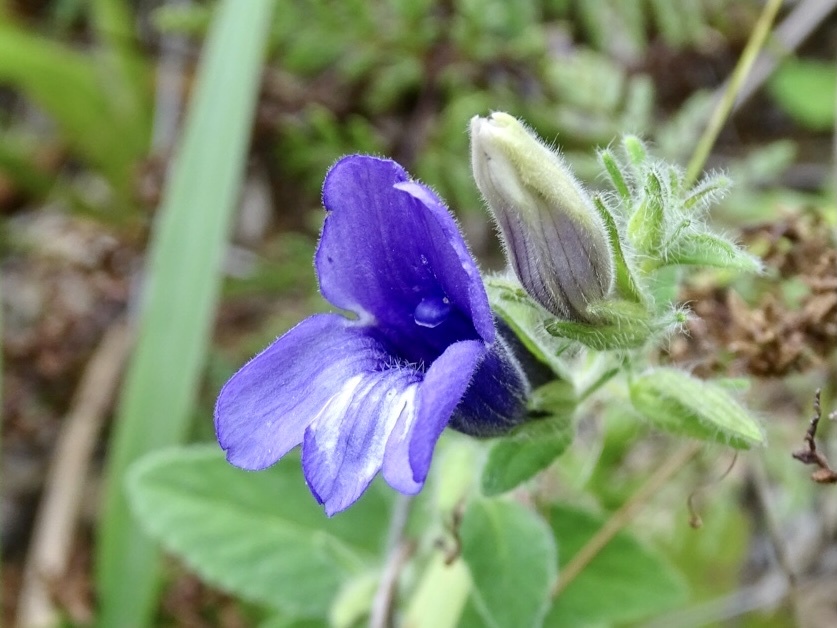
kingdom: Plantae
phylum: Tracheophyta
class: Magnoliopsida
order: Lamiales
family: Plantaginaceae
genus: Adenosma
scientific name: Adenosma glutinosa
